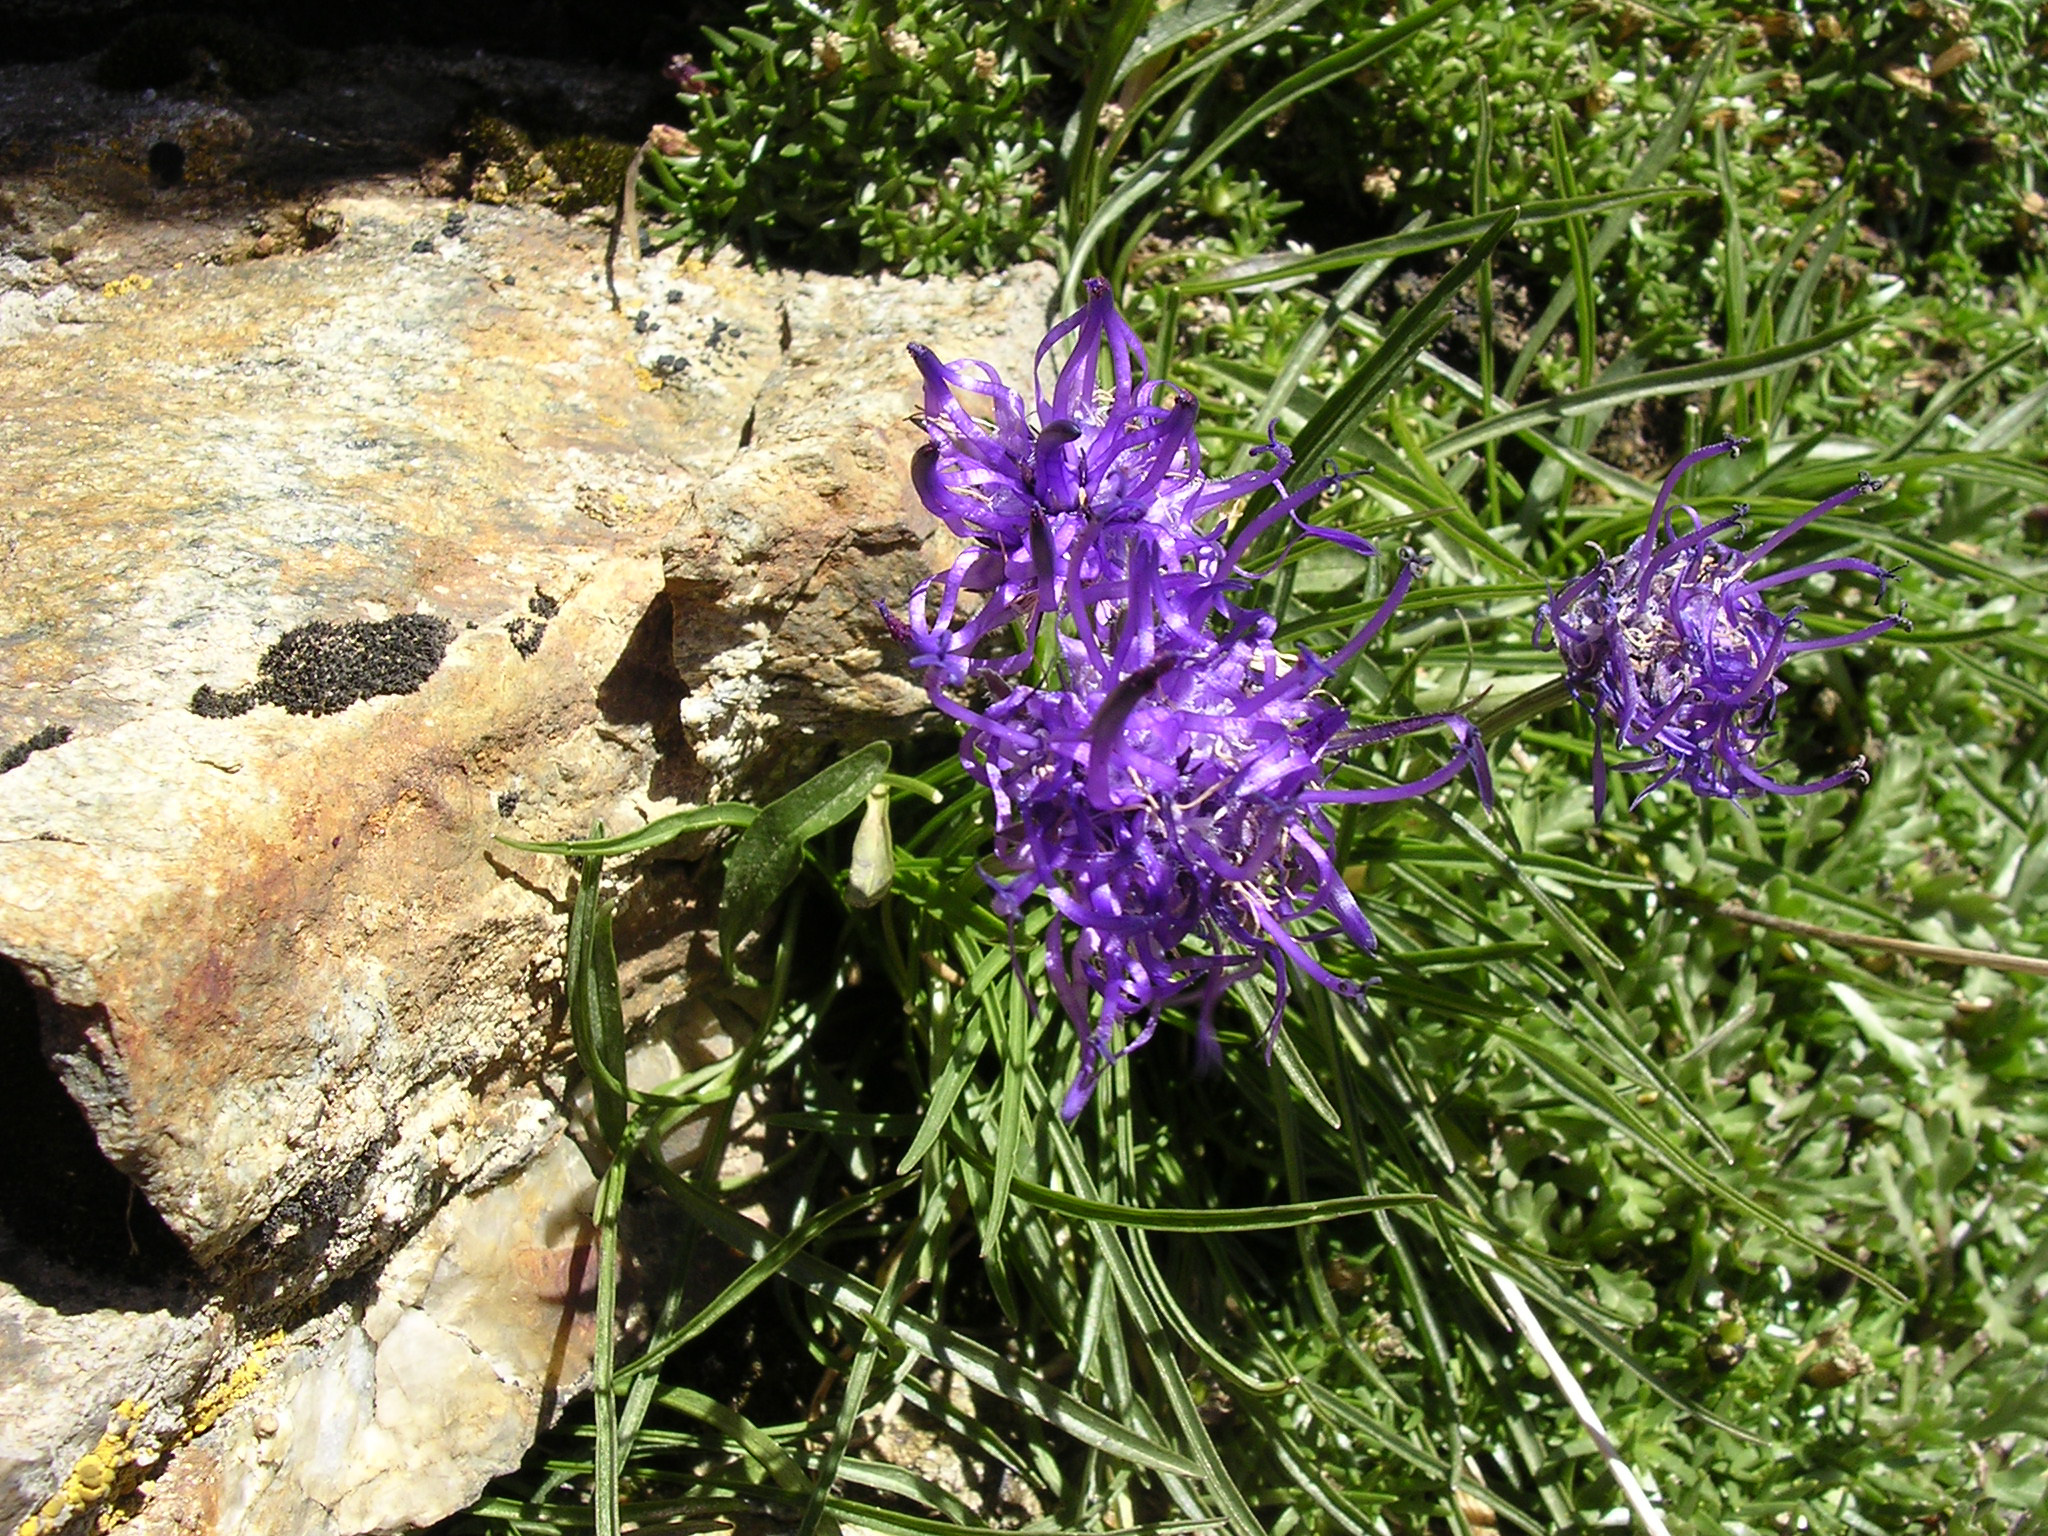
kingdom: Plantae
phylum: Tracheophyta
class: Magnoliopsida
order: Asterales
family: Campanulaceae
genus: Phyteuma
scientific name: Phyteuma hemisphaericum
